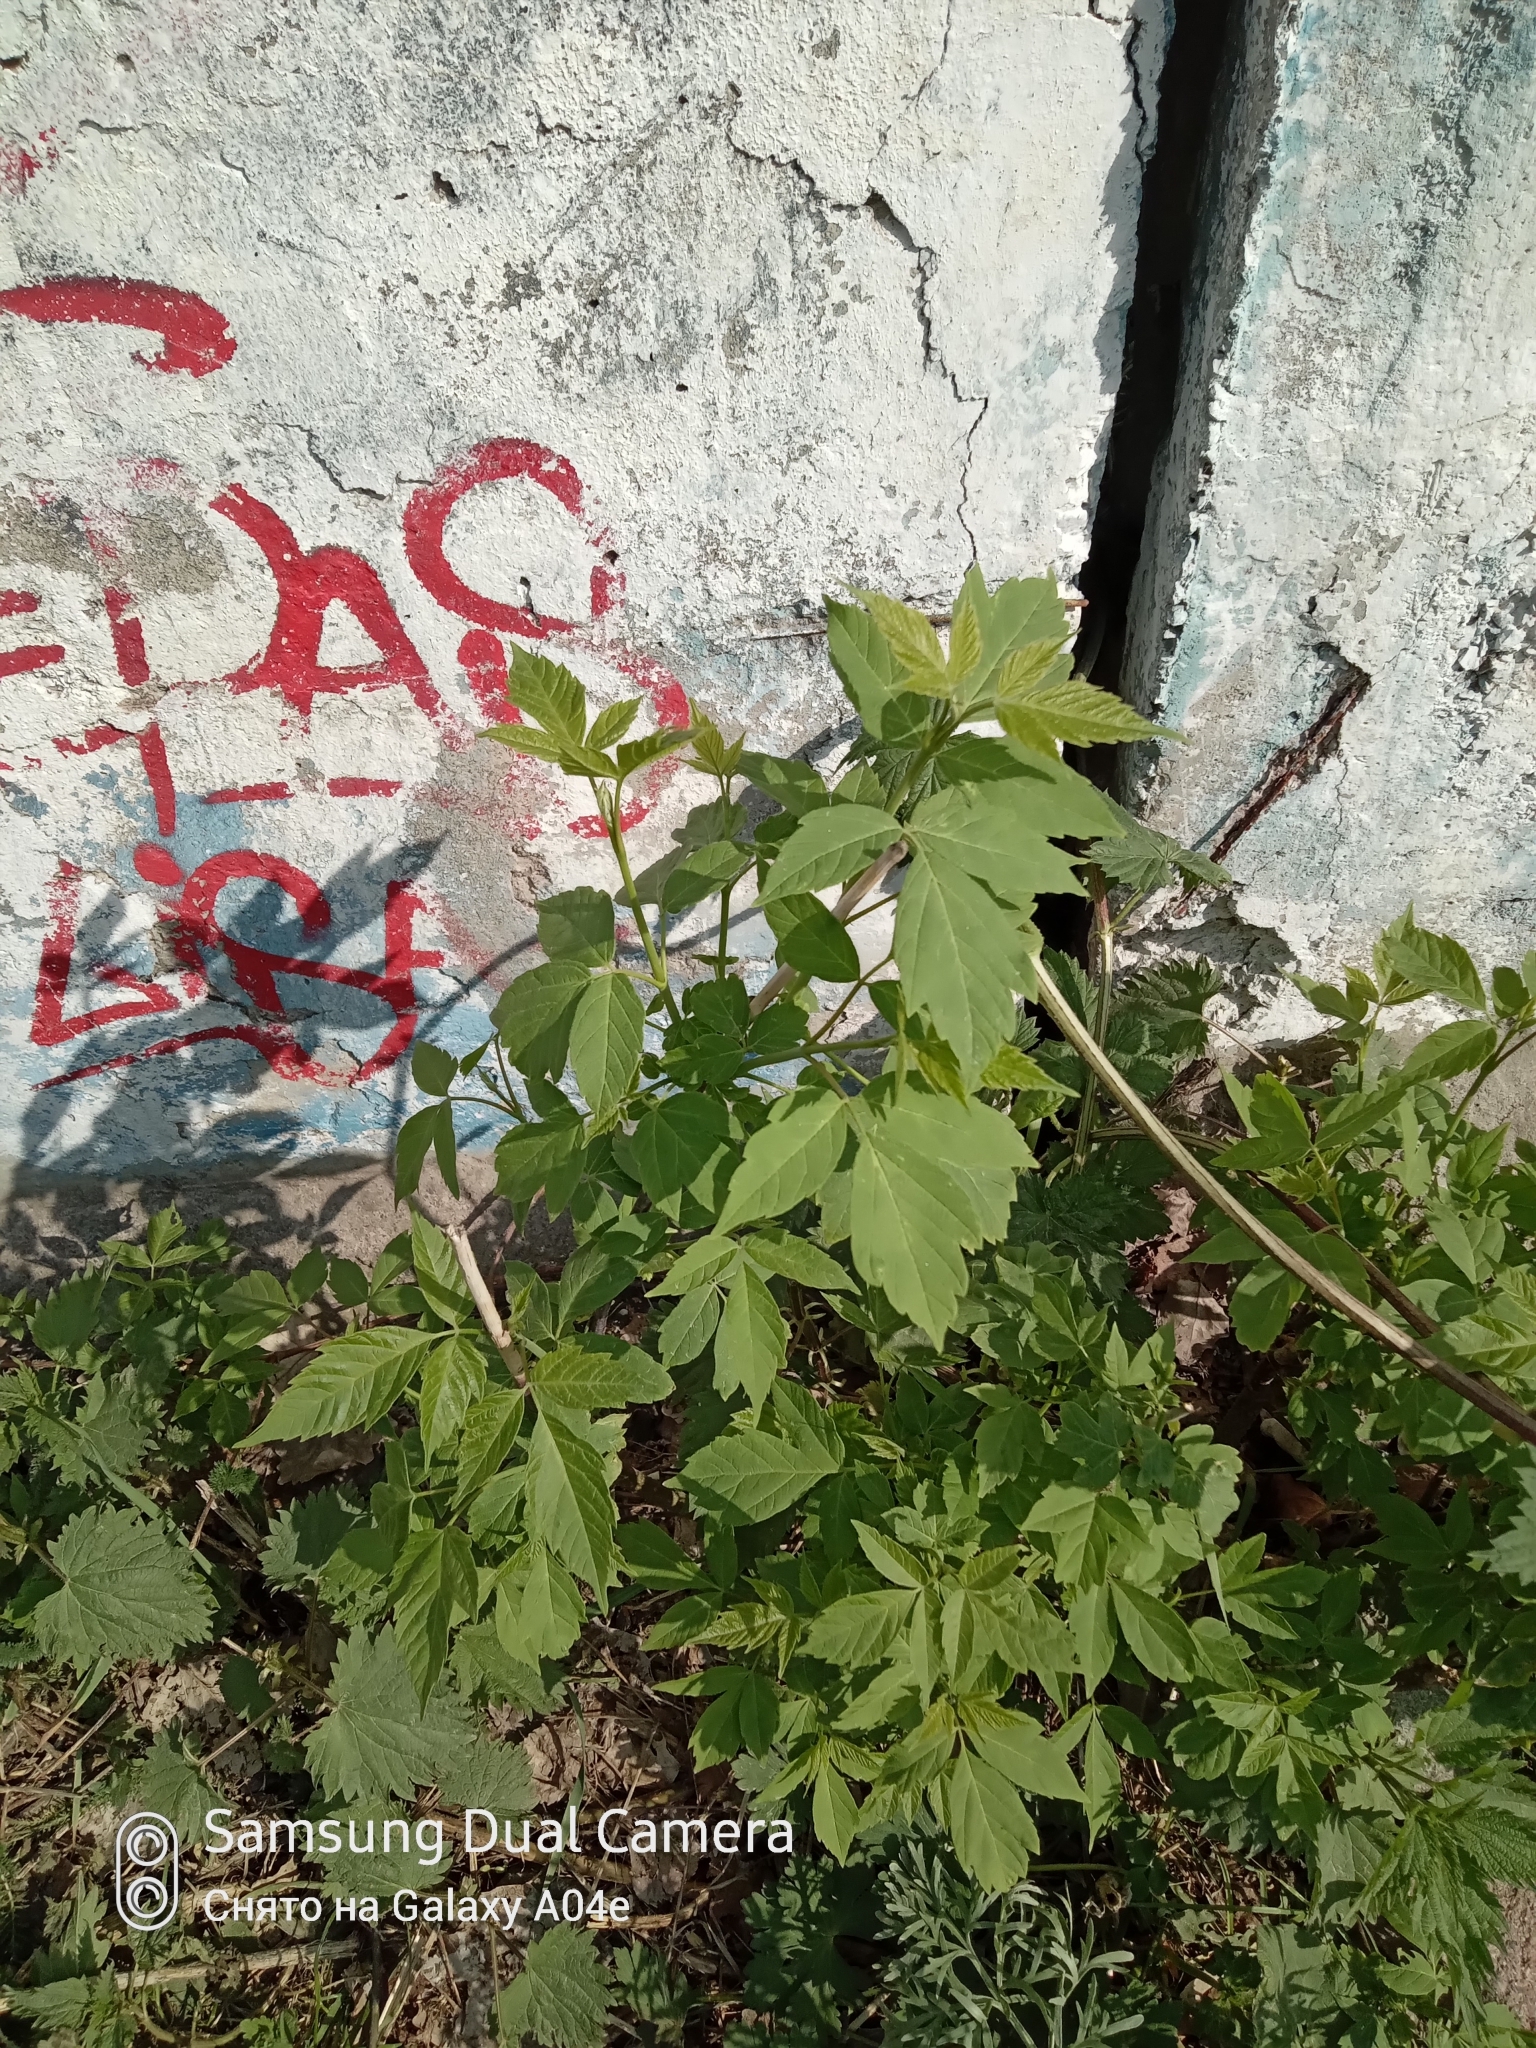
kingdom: Plantae
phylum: Tracheophyta
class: Magnoliopsida
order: Sapindales
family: Sapindaceae
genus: Acer
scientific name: Acer negundo
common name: Ashleaf maple
